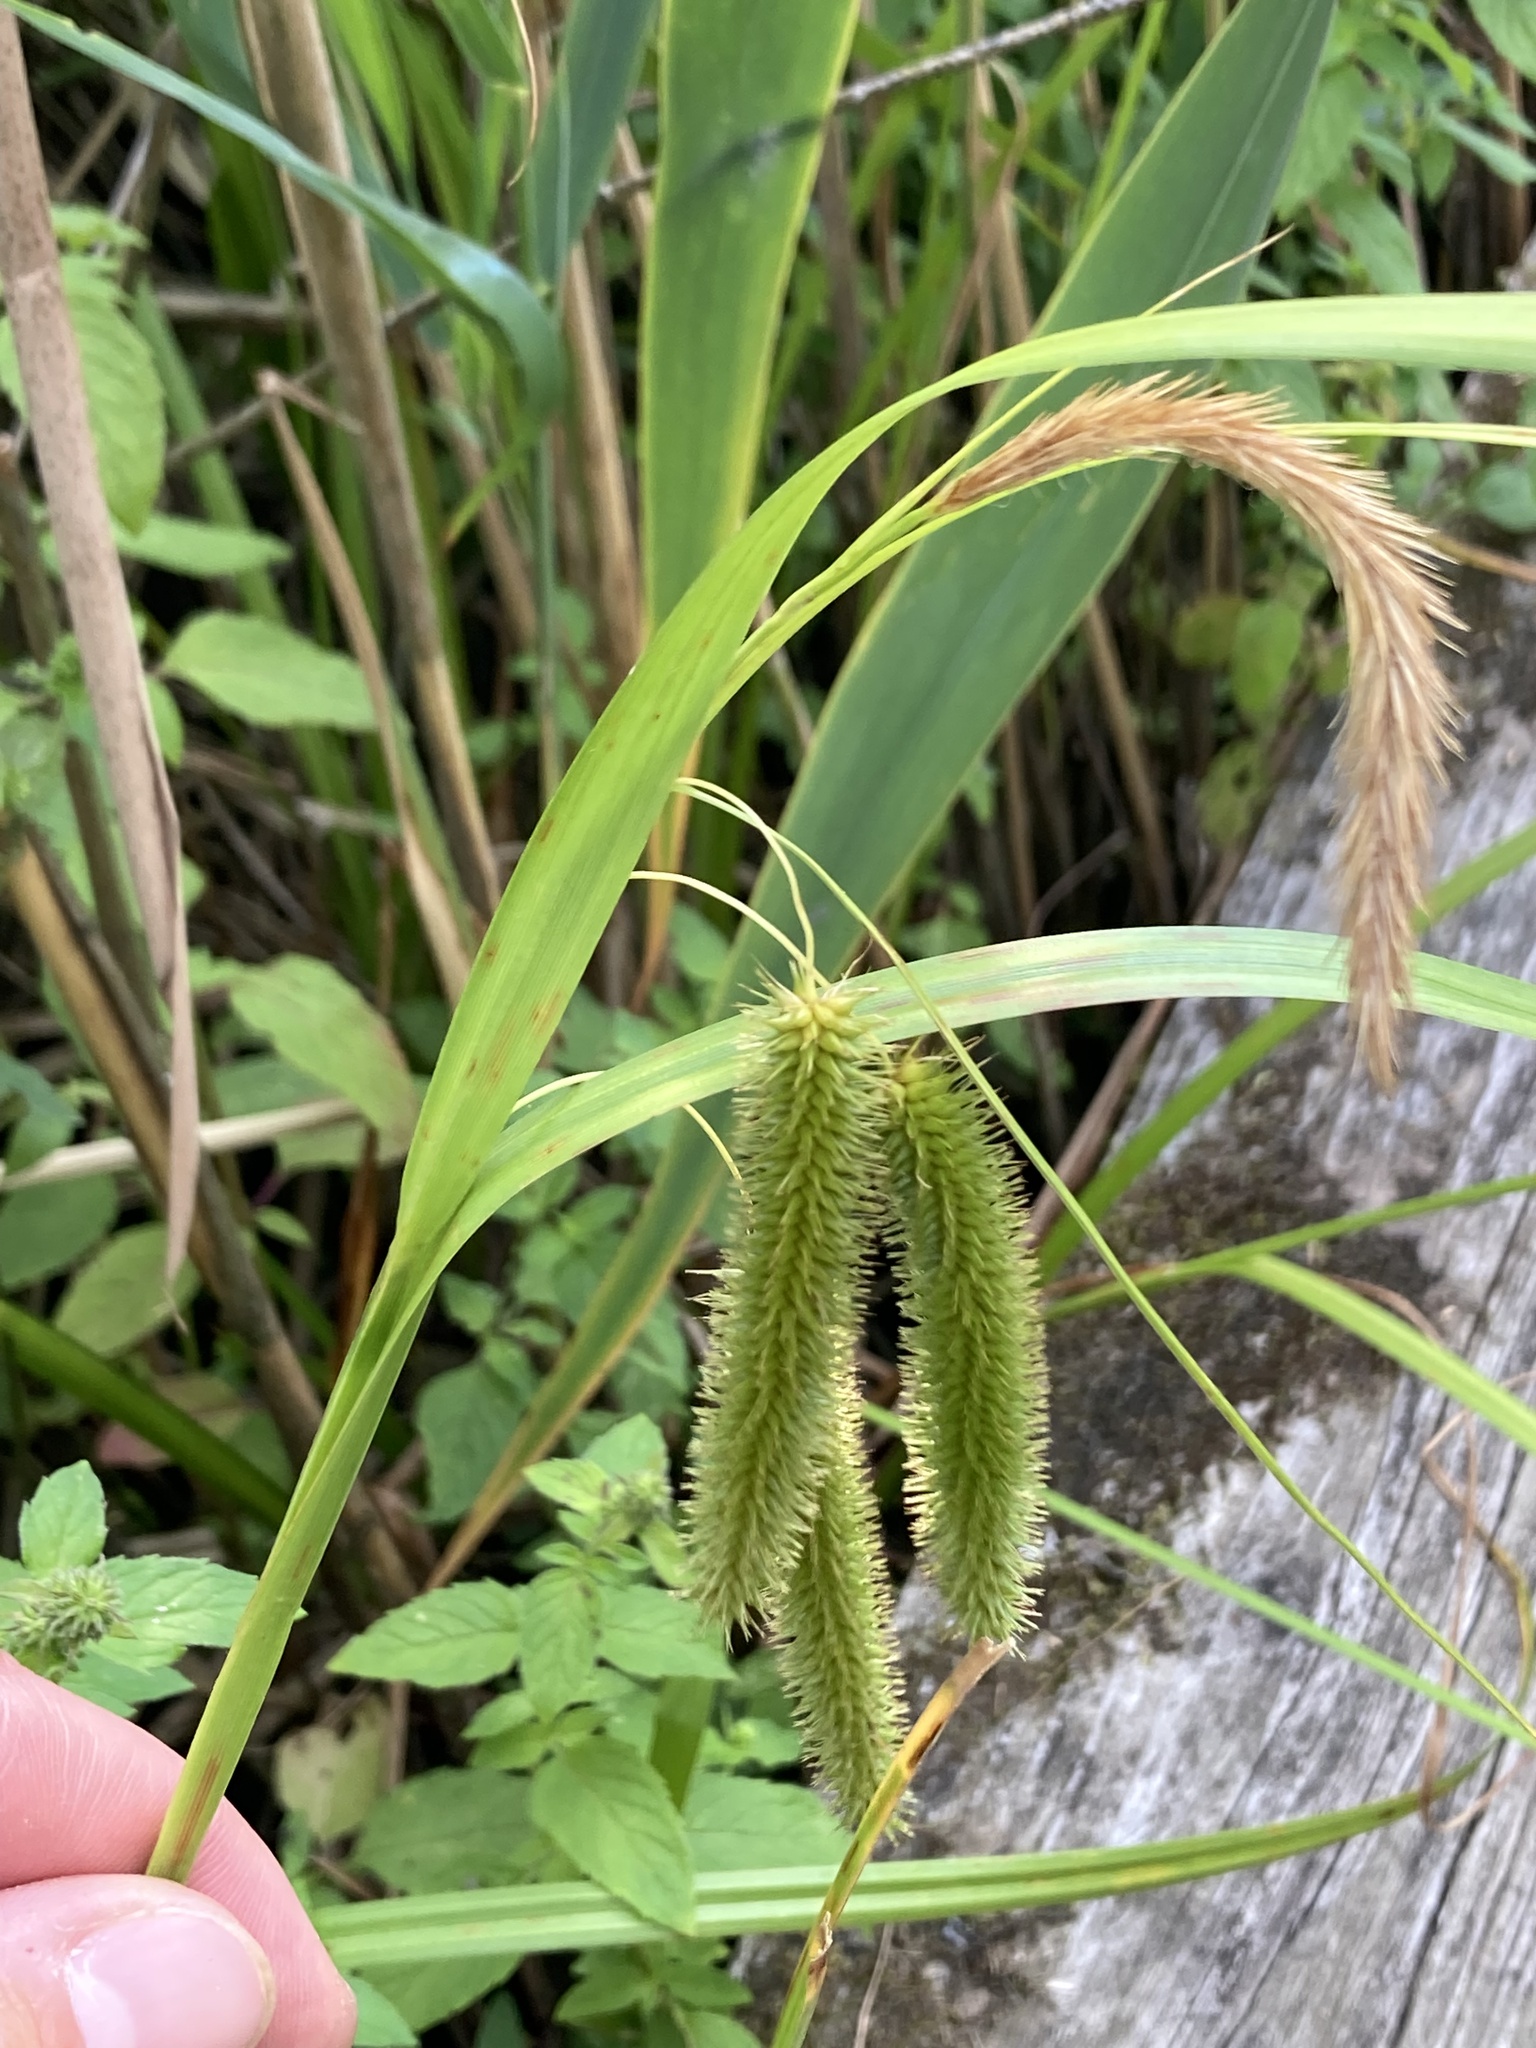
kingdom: Plantae
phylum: Tracheophyta
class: Liliopsida
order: Poales
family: Cyperaceae
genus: Carex
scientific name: Carex pseudocyperus
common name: Cyperus sedge
